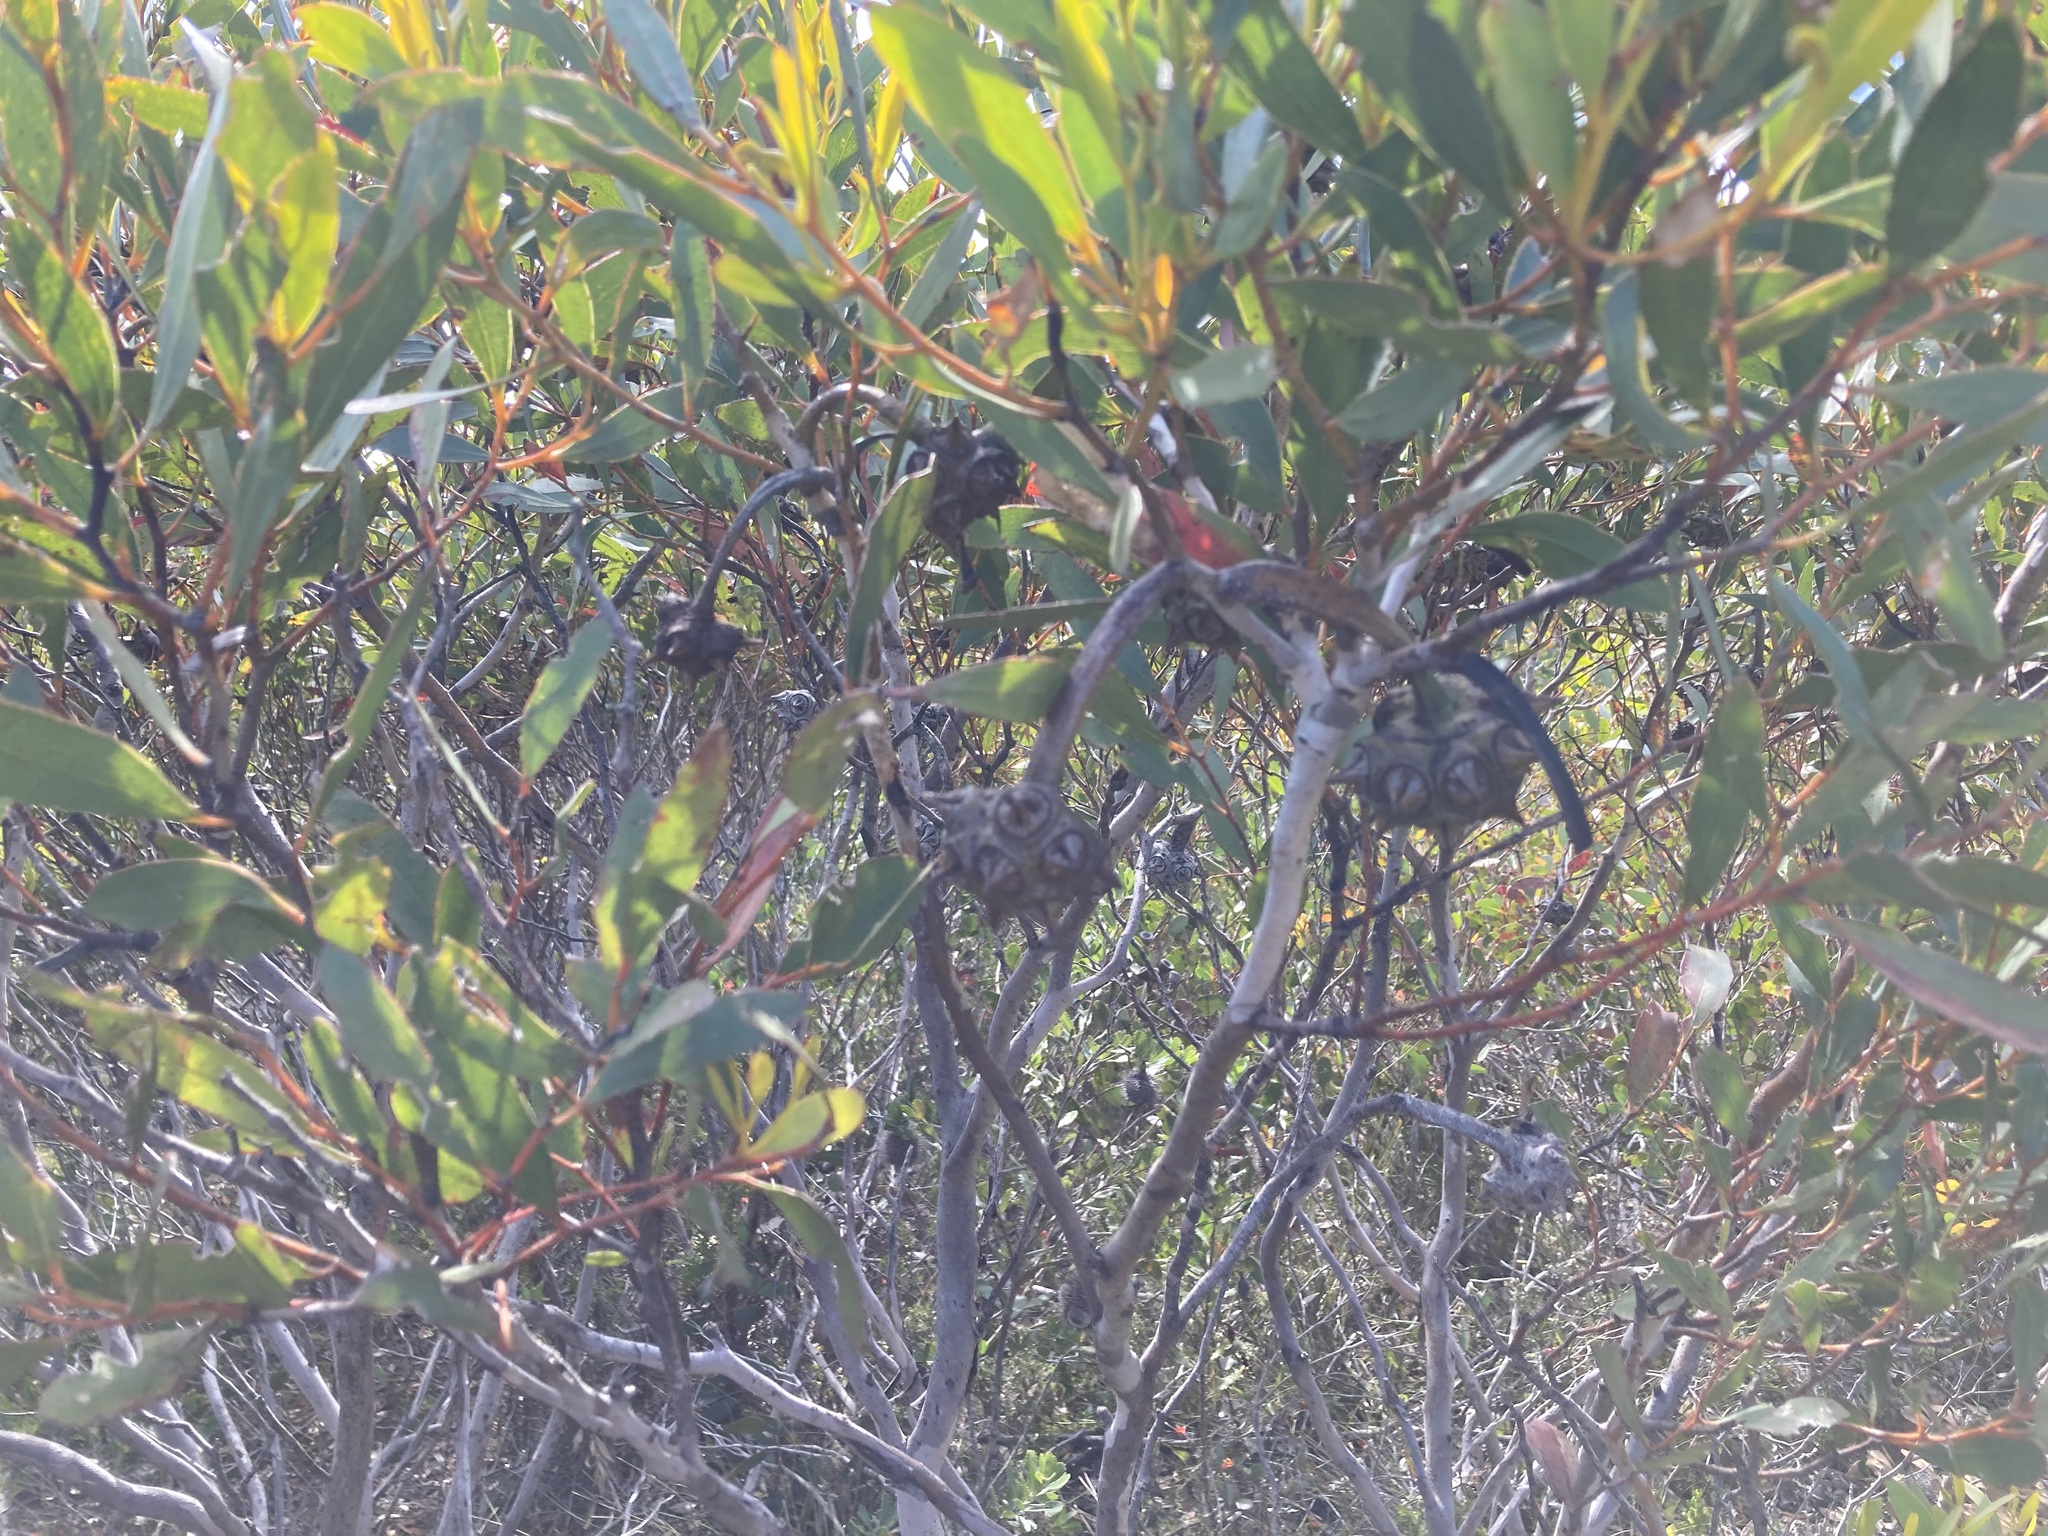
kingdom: Plantae
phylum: Tracheophyta
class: Magnoliopsida
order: Myrtales
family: Myrtaceae
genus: Eucalyptus
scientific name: Eucalyptus lehmannii
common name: Bushy yate
